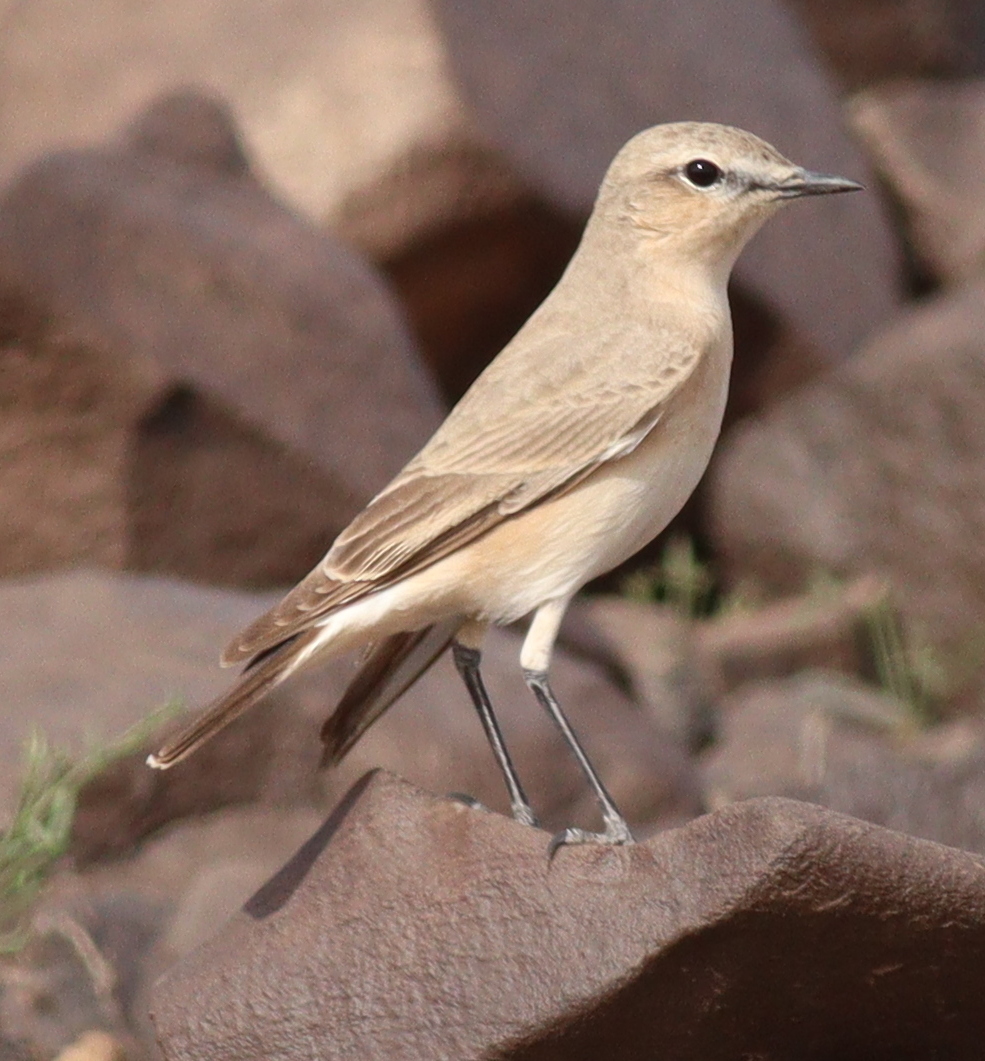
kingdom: Animalia
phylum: Chordata
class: Aves
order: Passeriformes
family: Muscicapidae
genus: Oenanthe
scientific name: Oenanthe isabellina
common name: Isabelline wheatear
